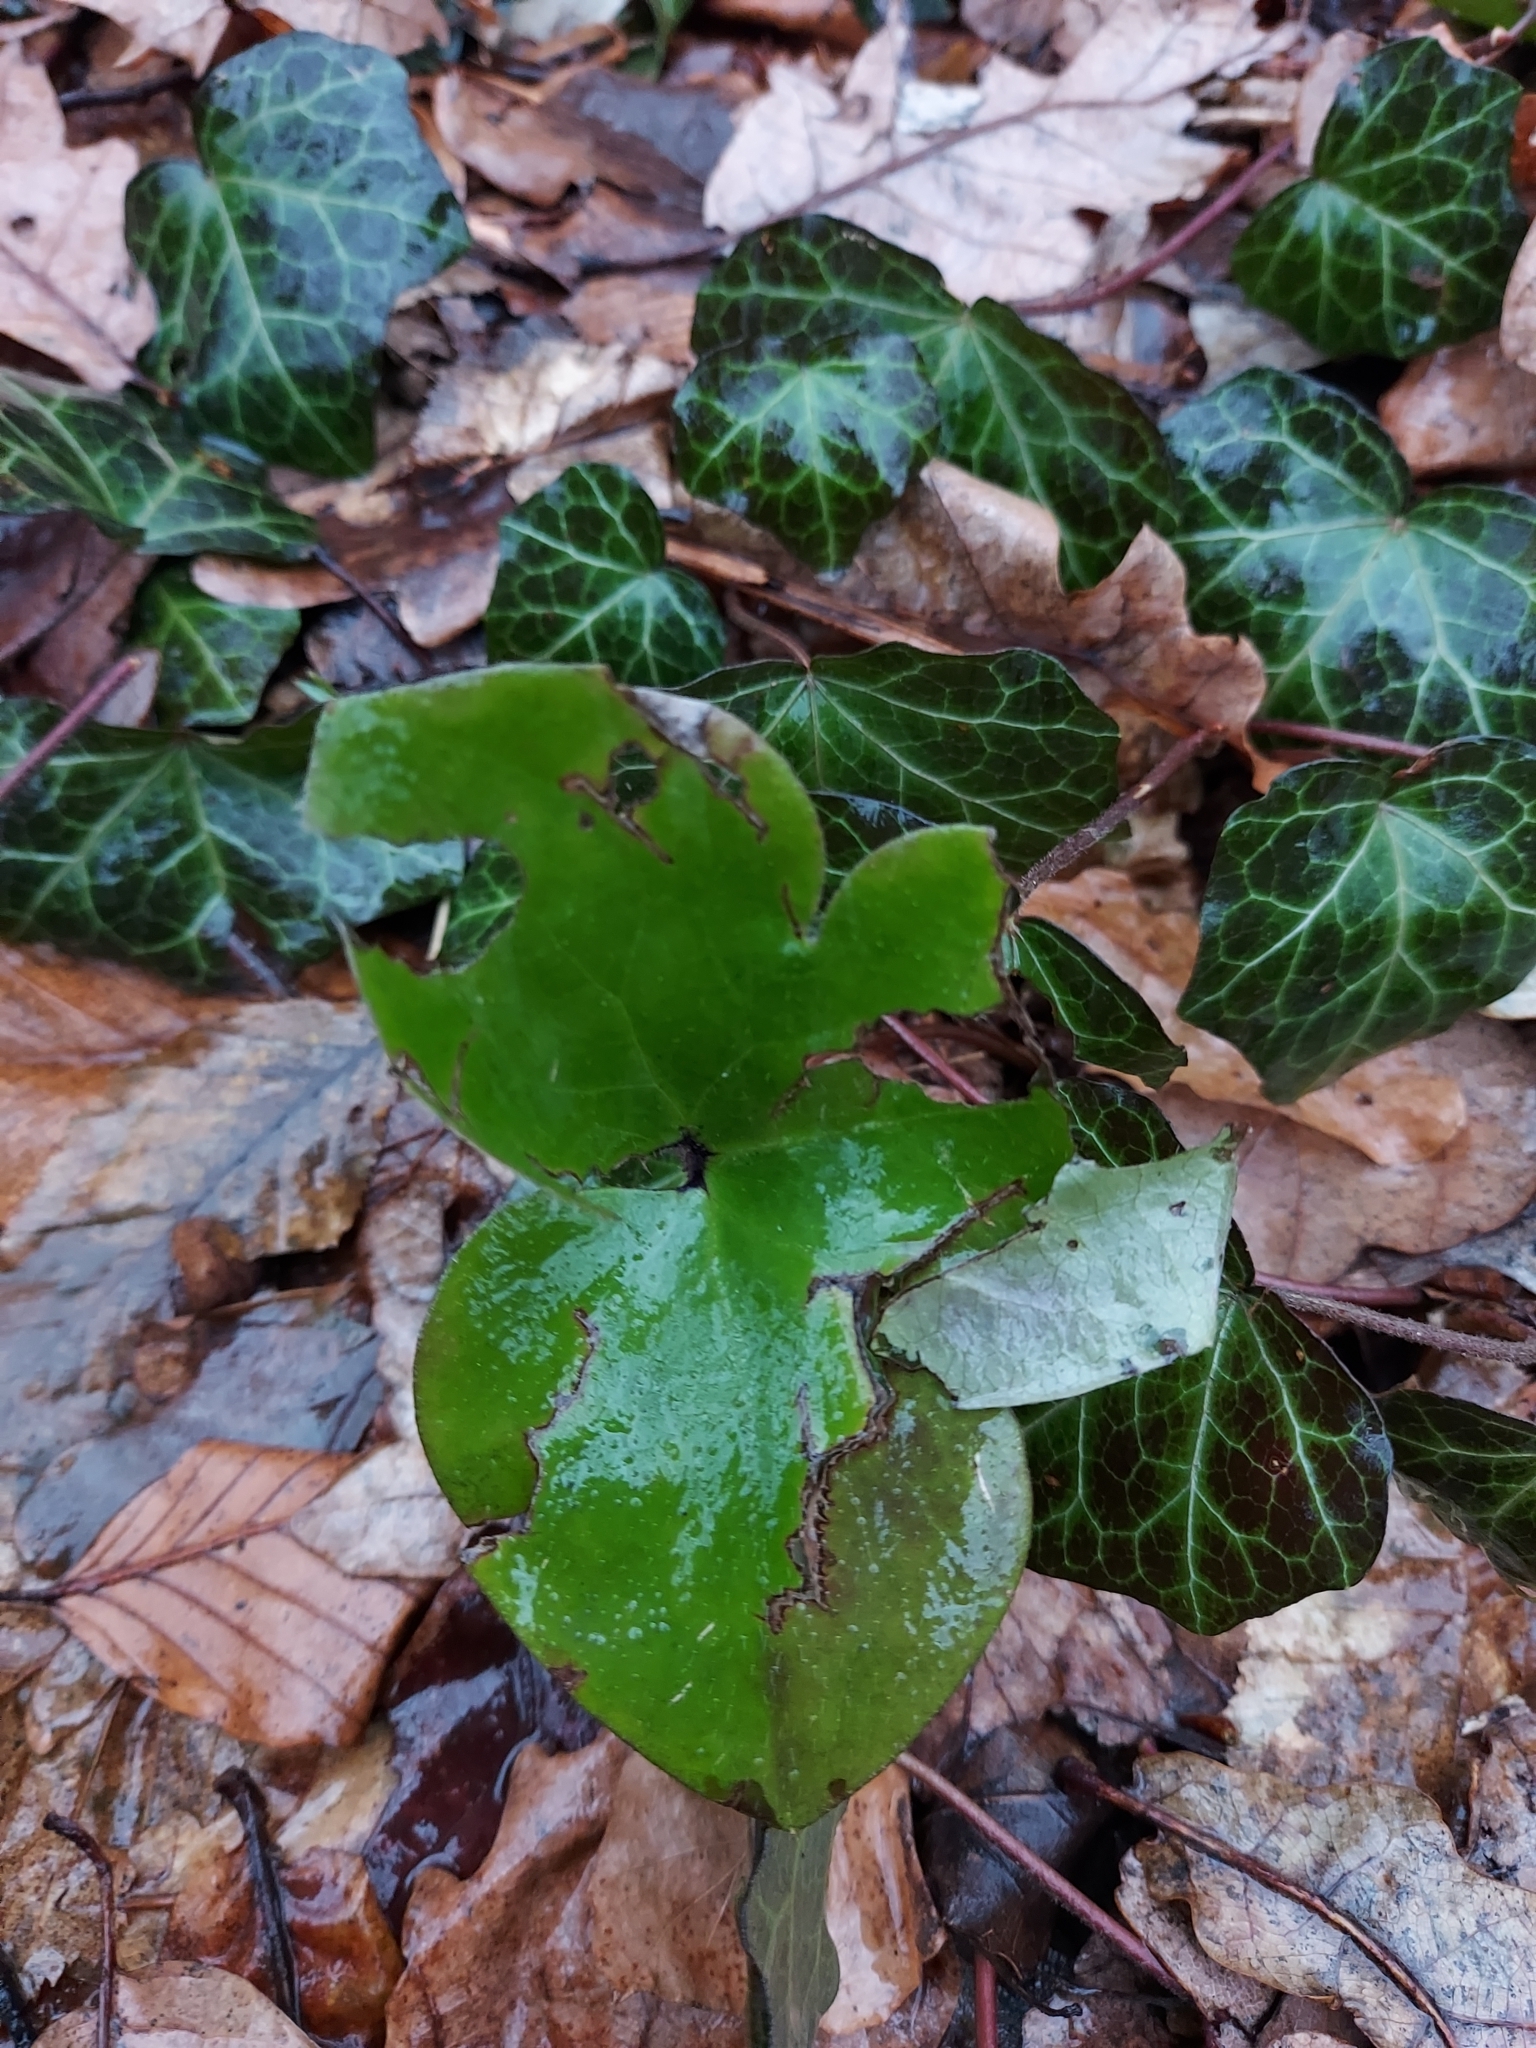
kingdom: Plantae
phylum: Tracheophyta
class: Magnoliopsida
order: Ranunculales
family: Ranunculaceae
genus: Hepatica
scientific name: Hepatica nobilis
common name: Liverleaf
